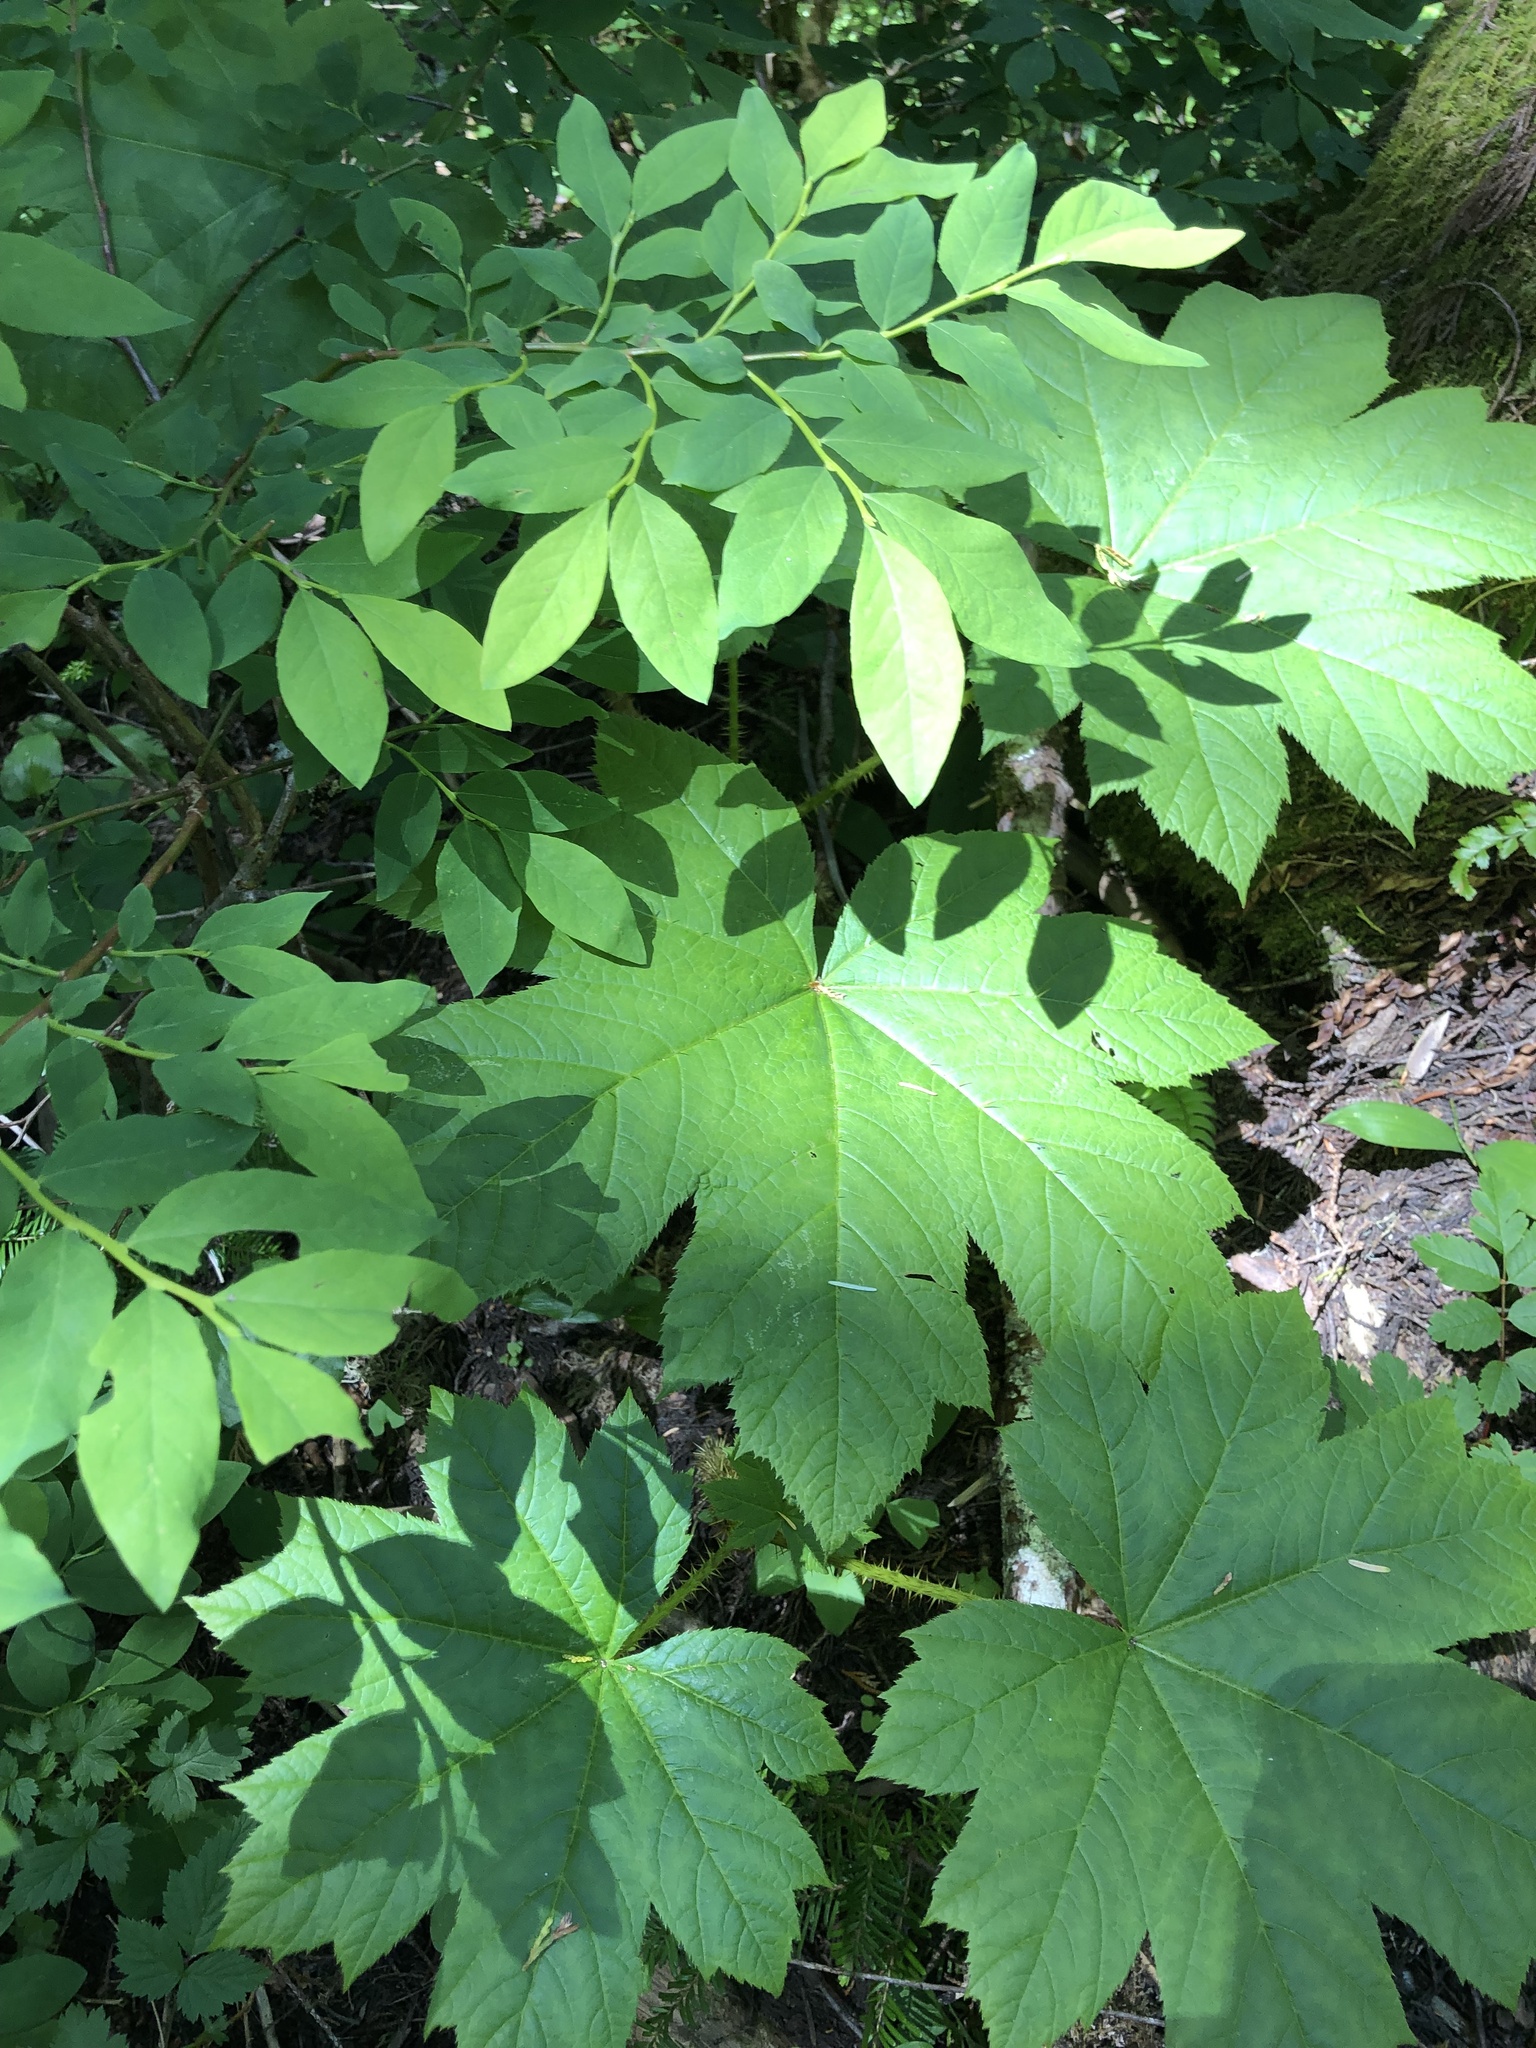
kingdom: Plantae
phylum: Tracheophyta
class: Magnoliopsida
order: Apiales
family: Araliaceae
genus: Oplopanax
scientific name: Oplopanax horridus
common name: Devil's walking-stick
